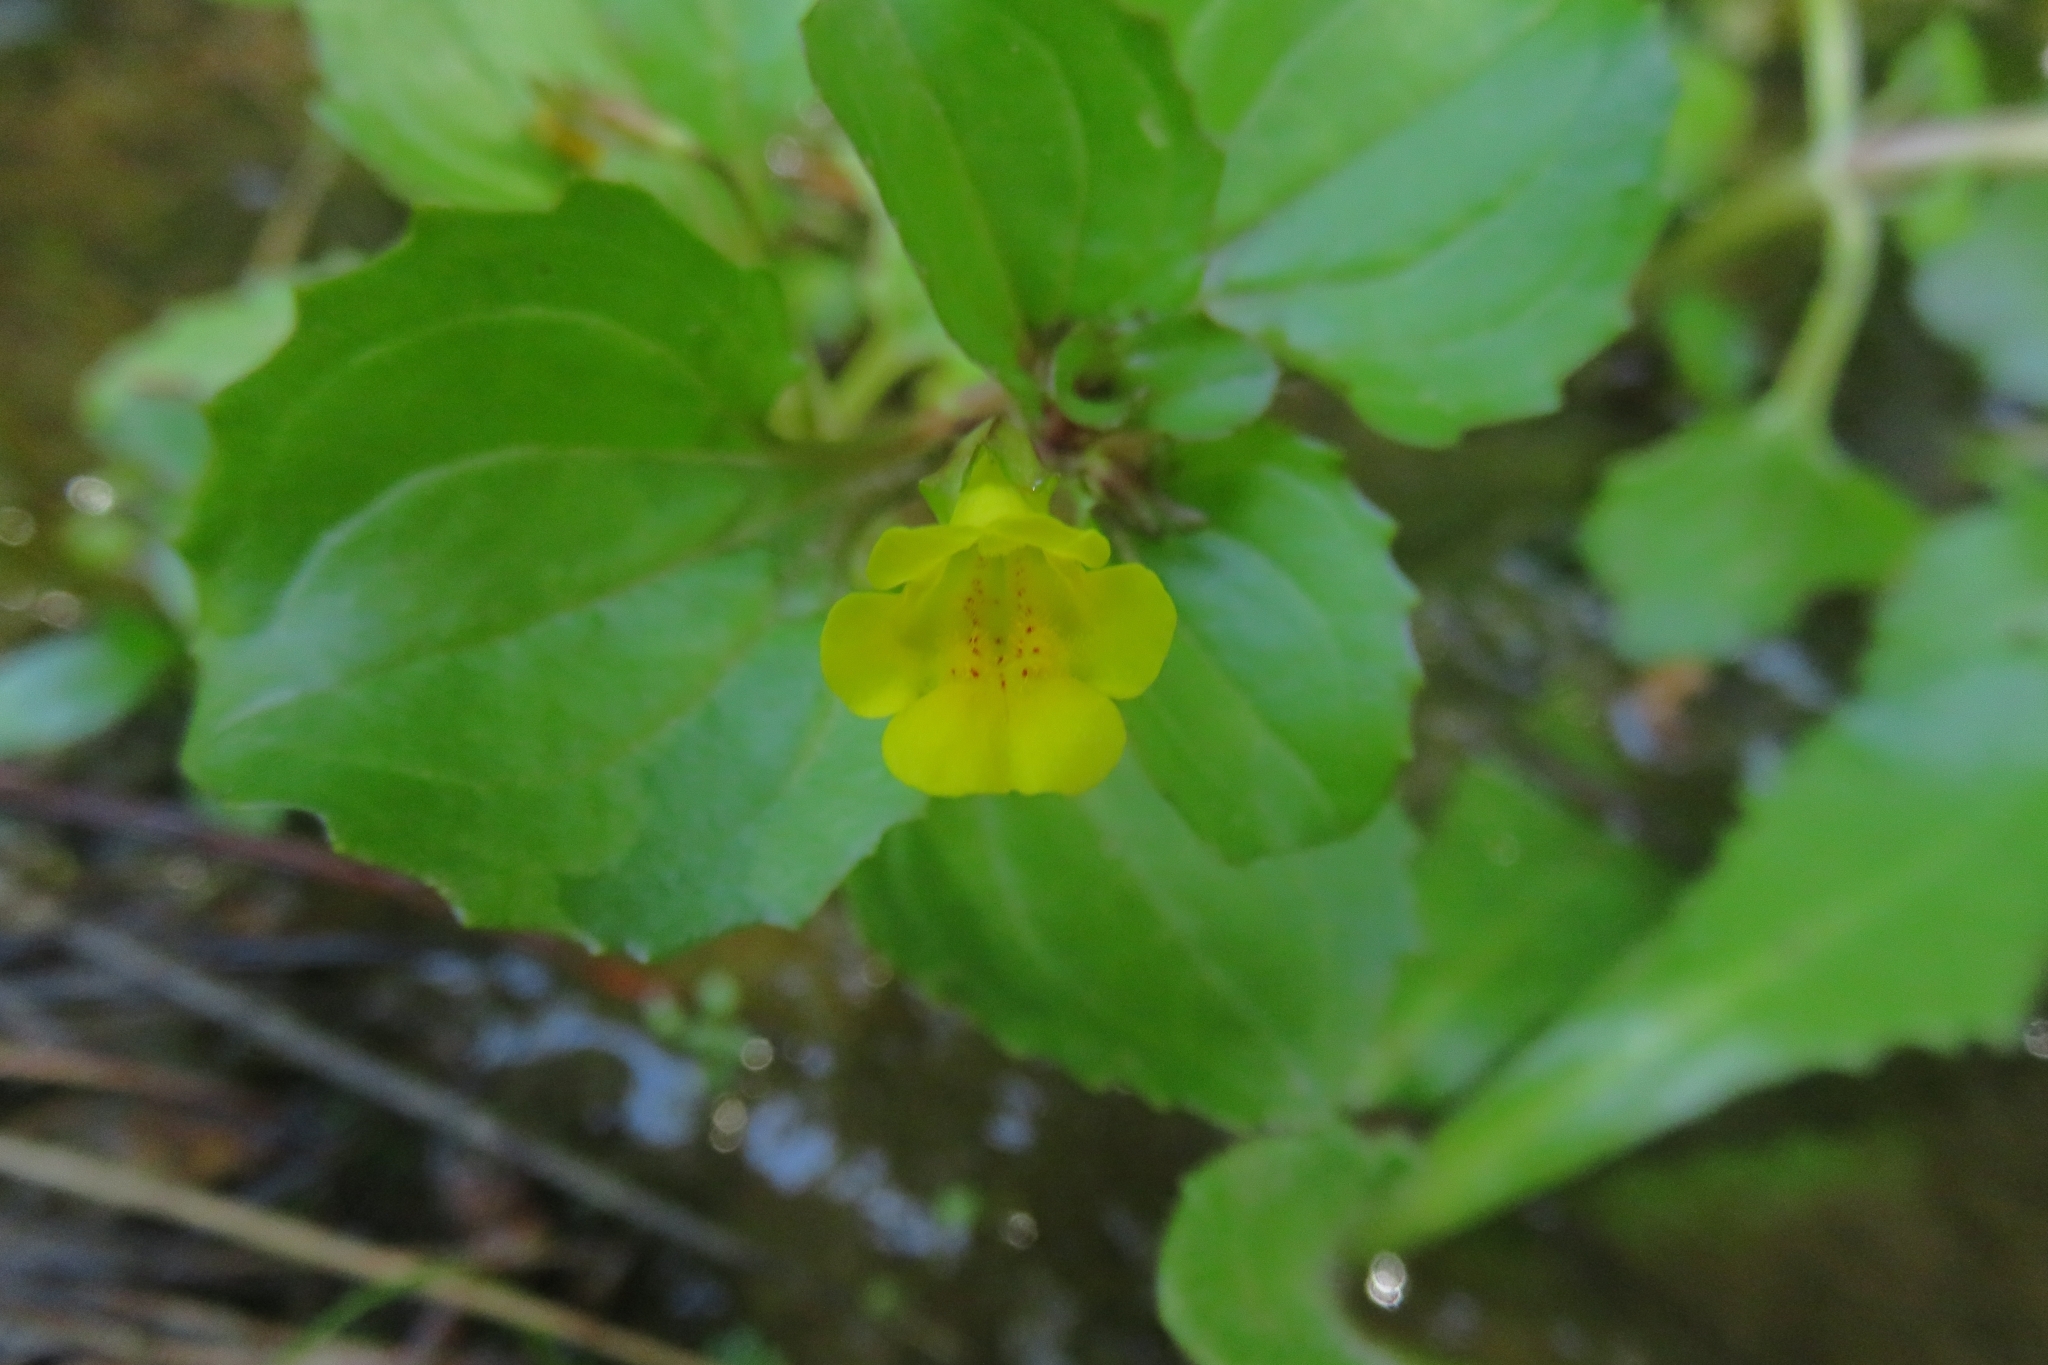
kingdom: Plantae
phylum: Tracheophyta
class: Magnoliopsida
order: Lamiales
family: Phrymaceae
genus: Erythranthe
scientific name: Erythranthe andicola
